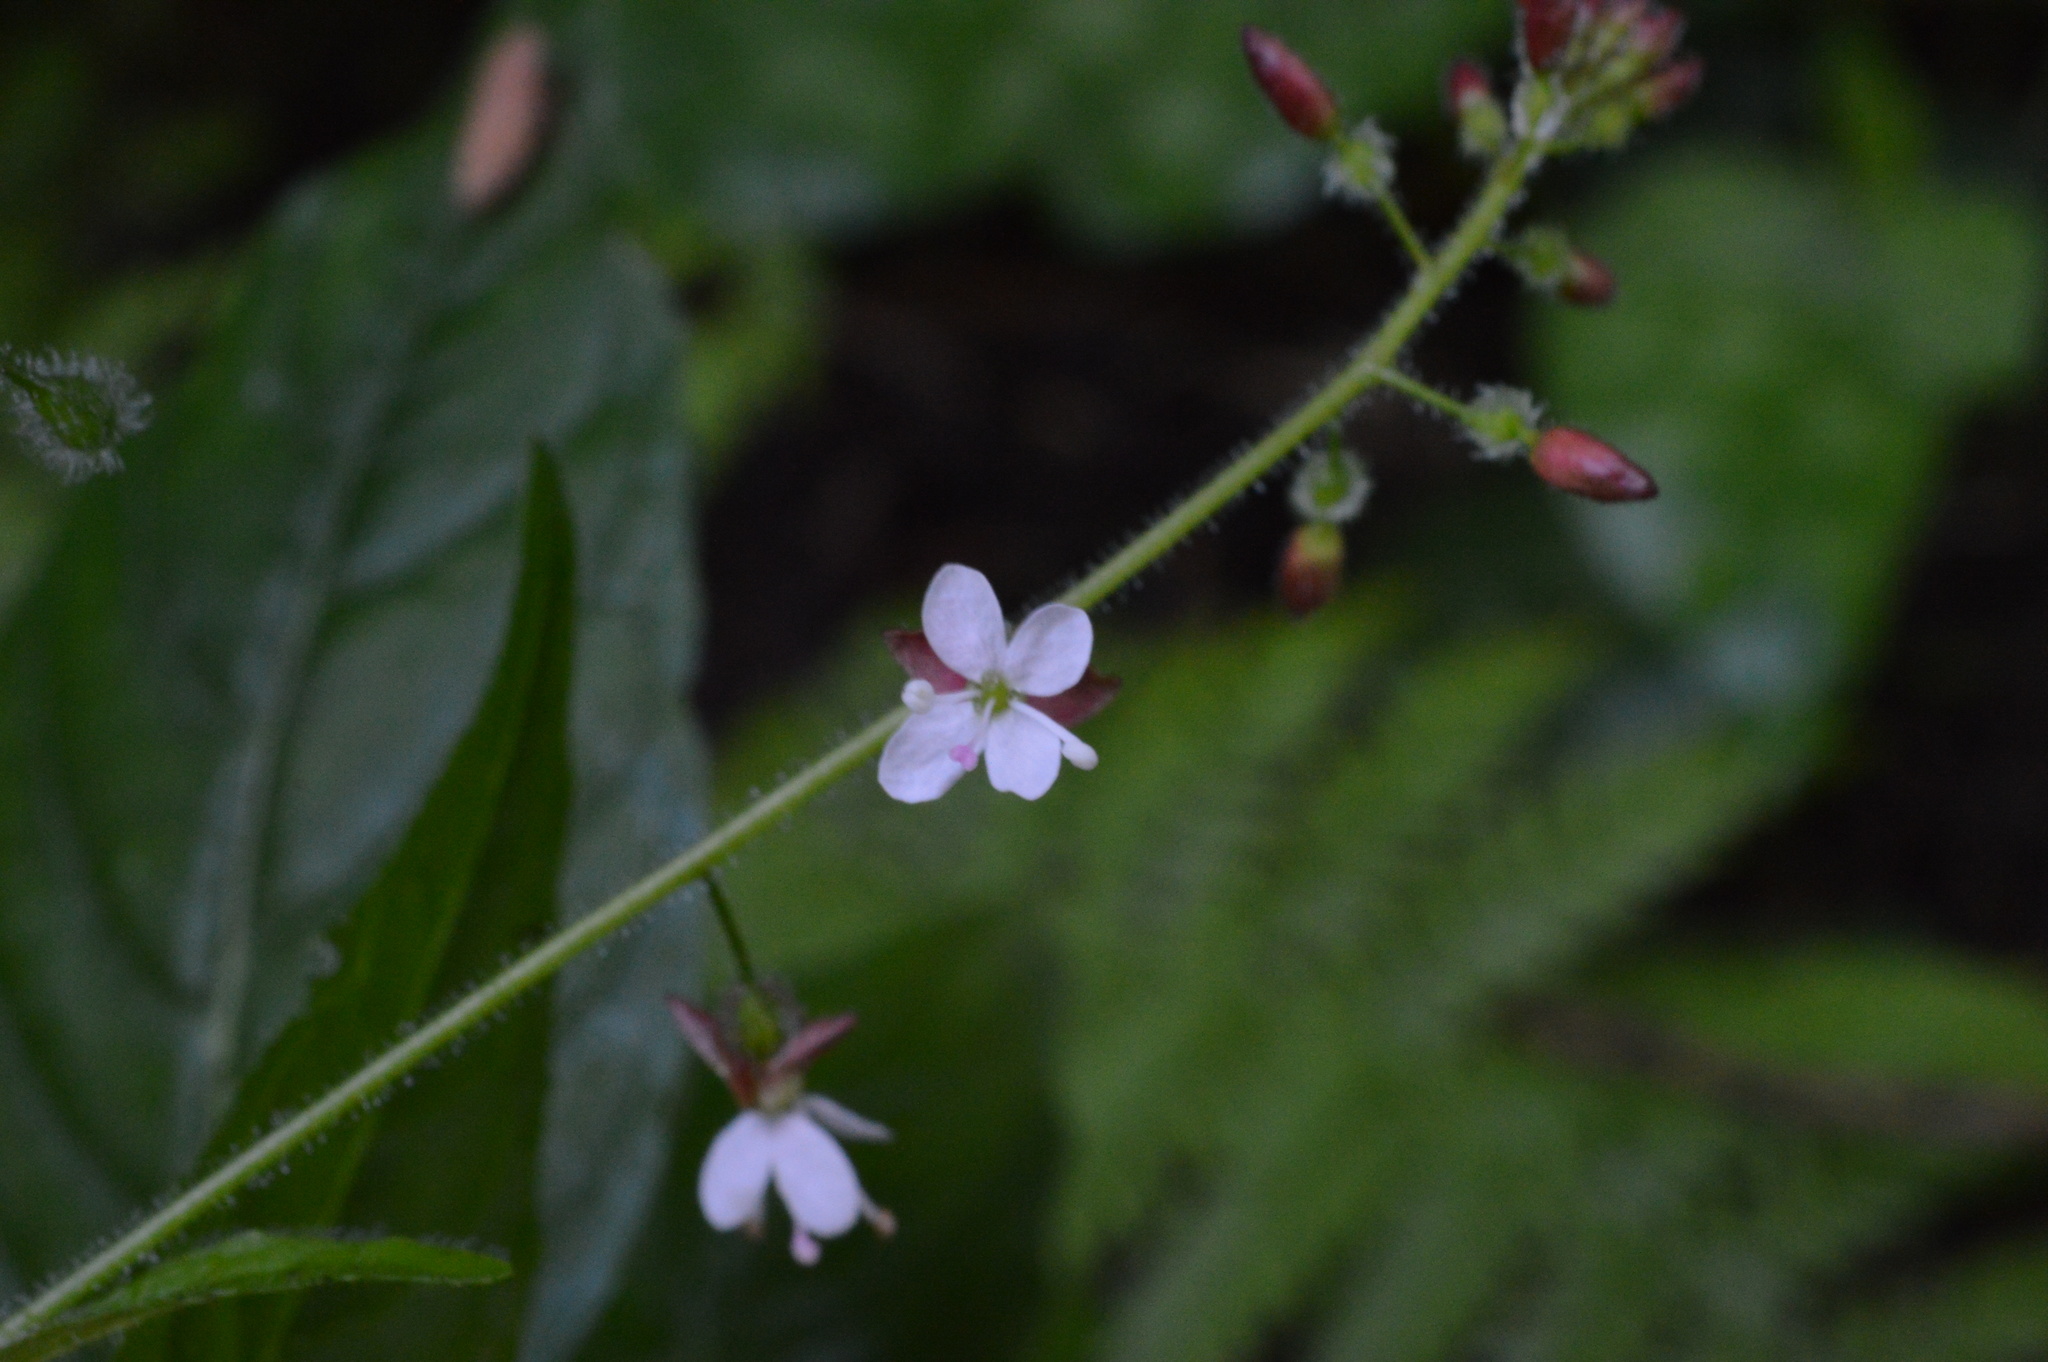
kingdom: Plantae
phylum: Tracheophyta
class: Magnoliopsida
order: Myrtales
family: Onagraceae
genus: Circaea
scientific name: Circaea lutetiana
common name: Enchanter's-nightshade
